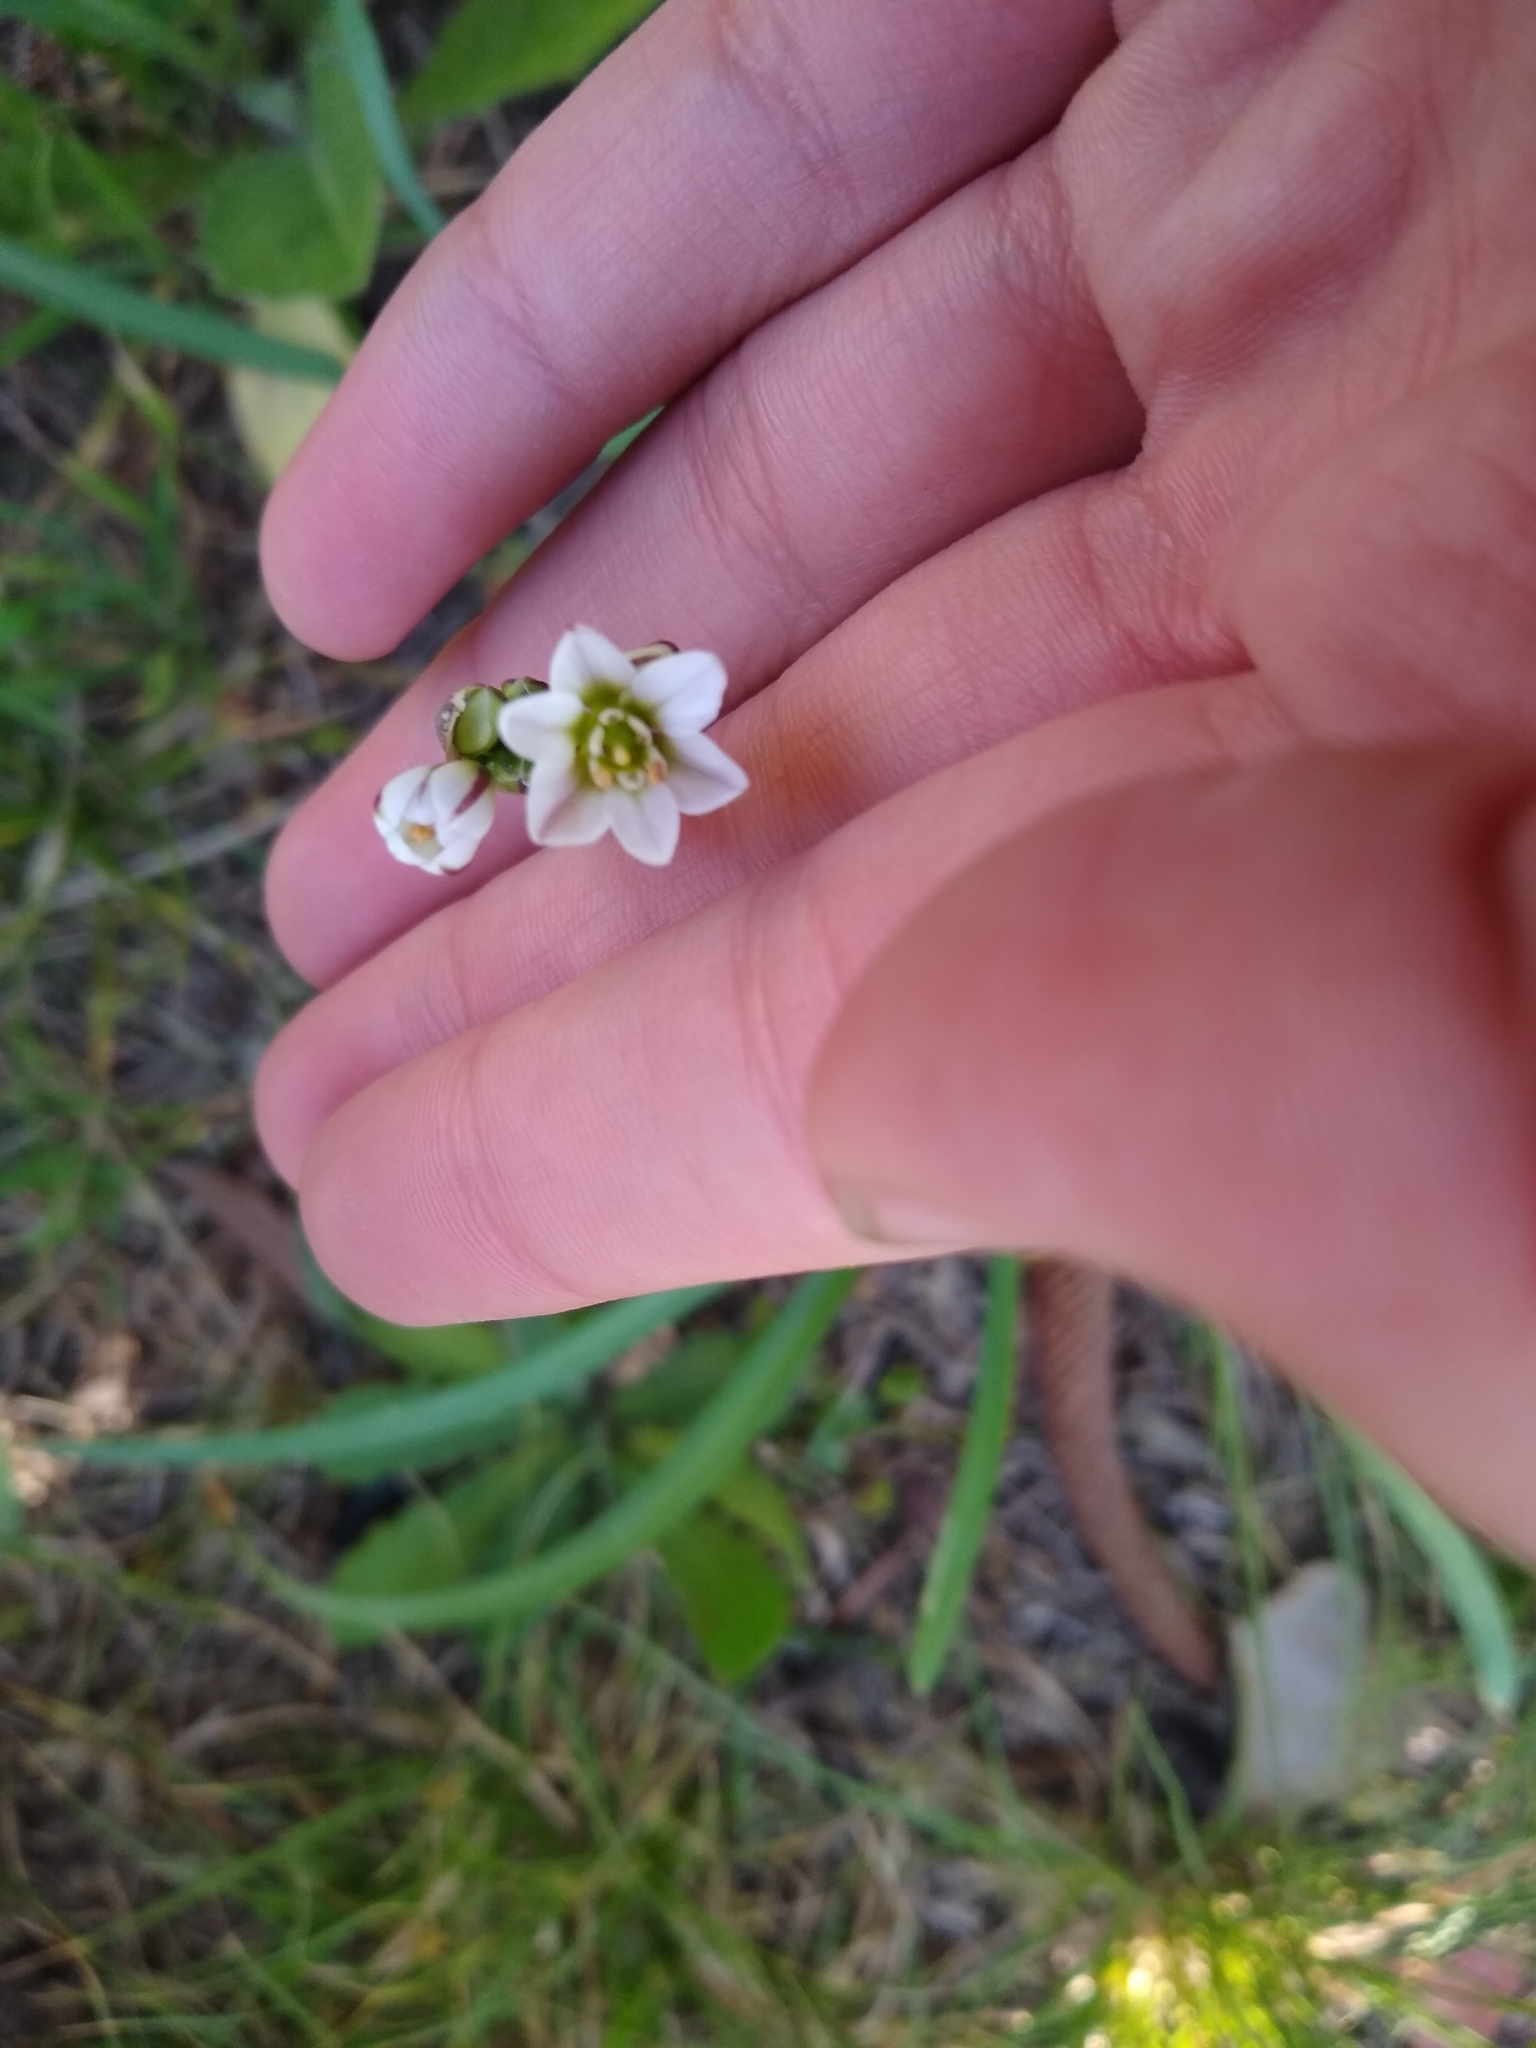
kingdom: Plantae
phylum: Tracheophyta
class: Liliopsida
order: Asparagales
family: Amaryllidaceae
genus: Nothoscordum
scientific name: Nothoscordum gracile
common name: Slender false garlic
